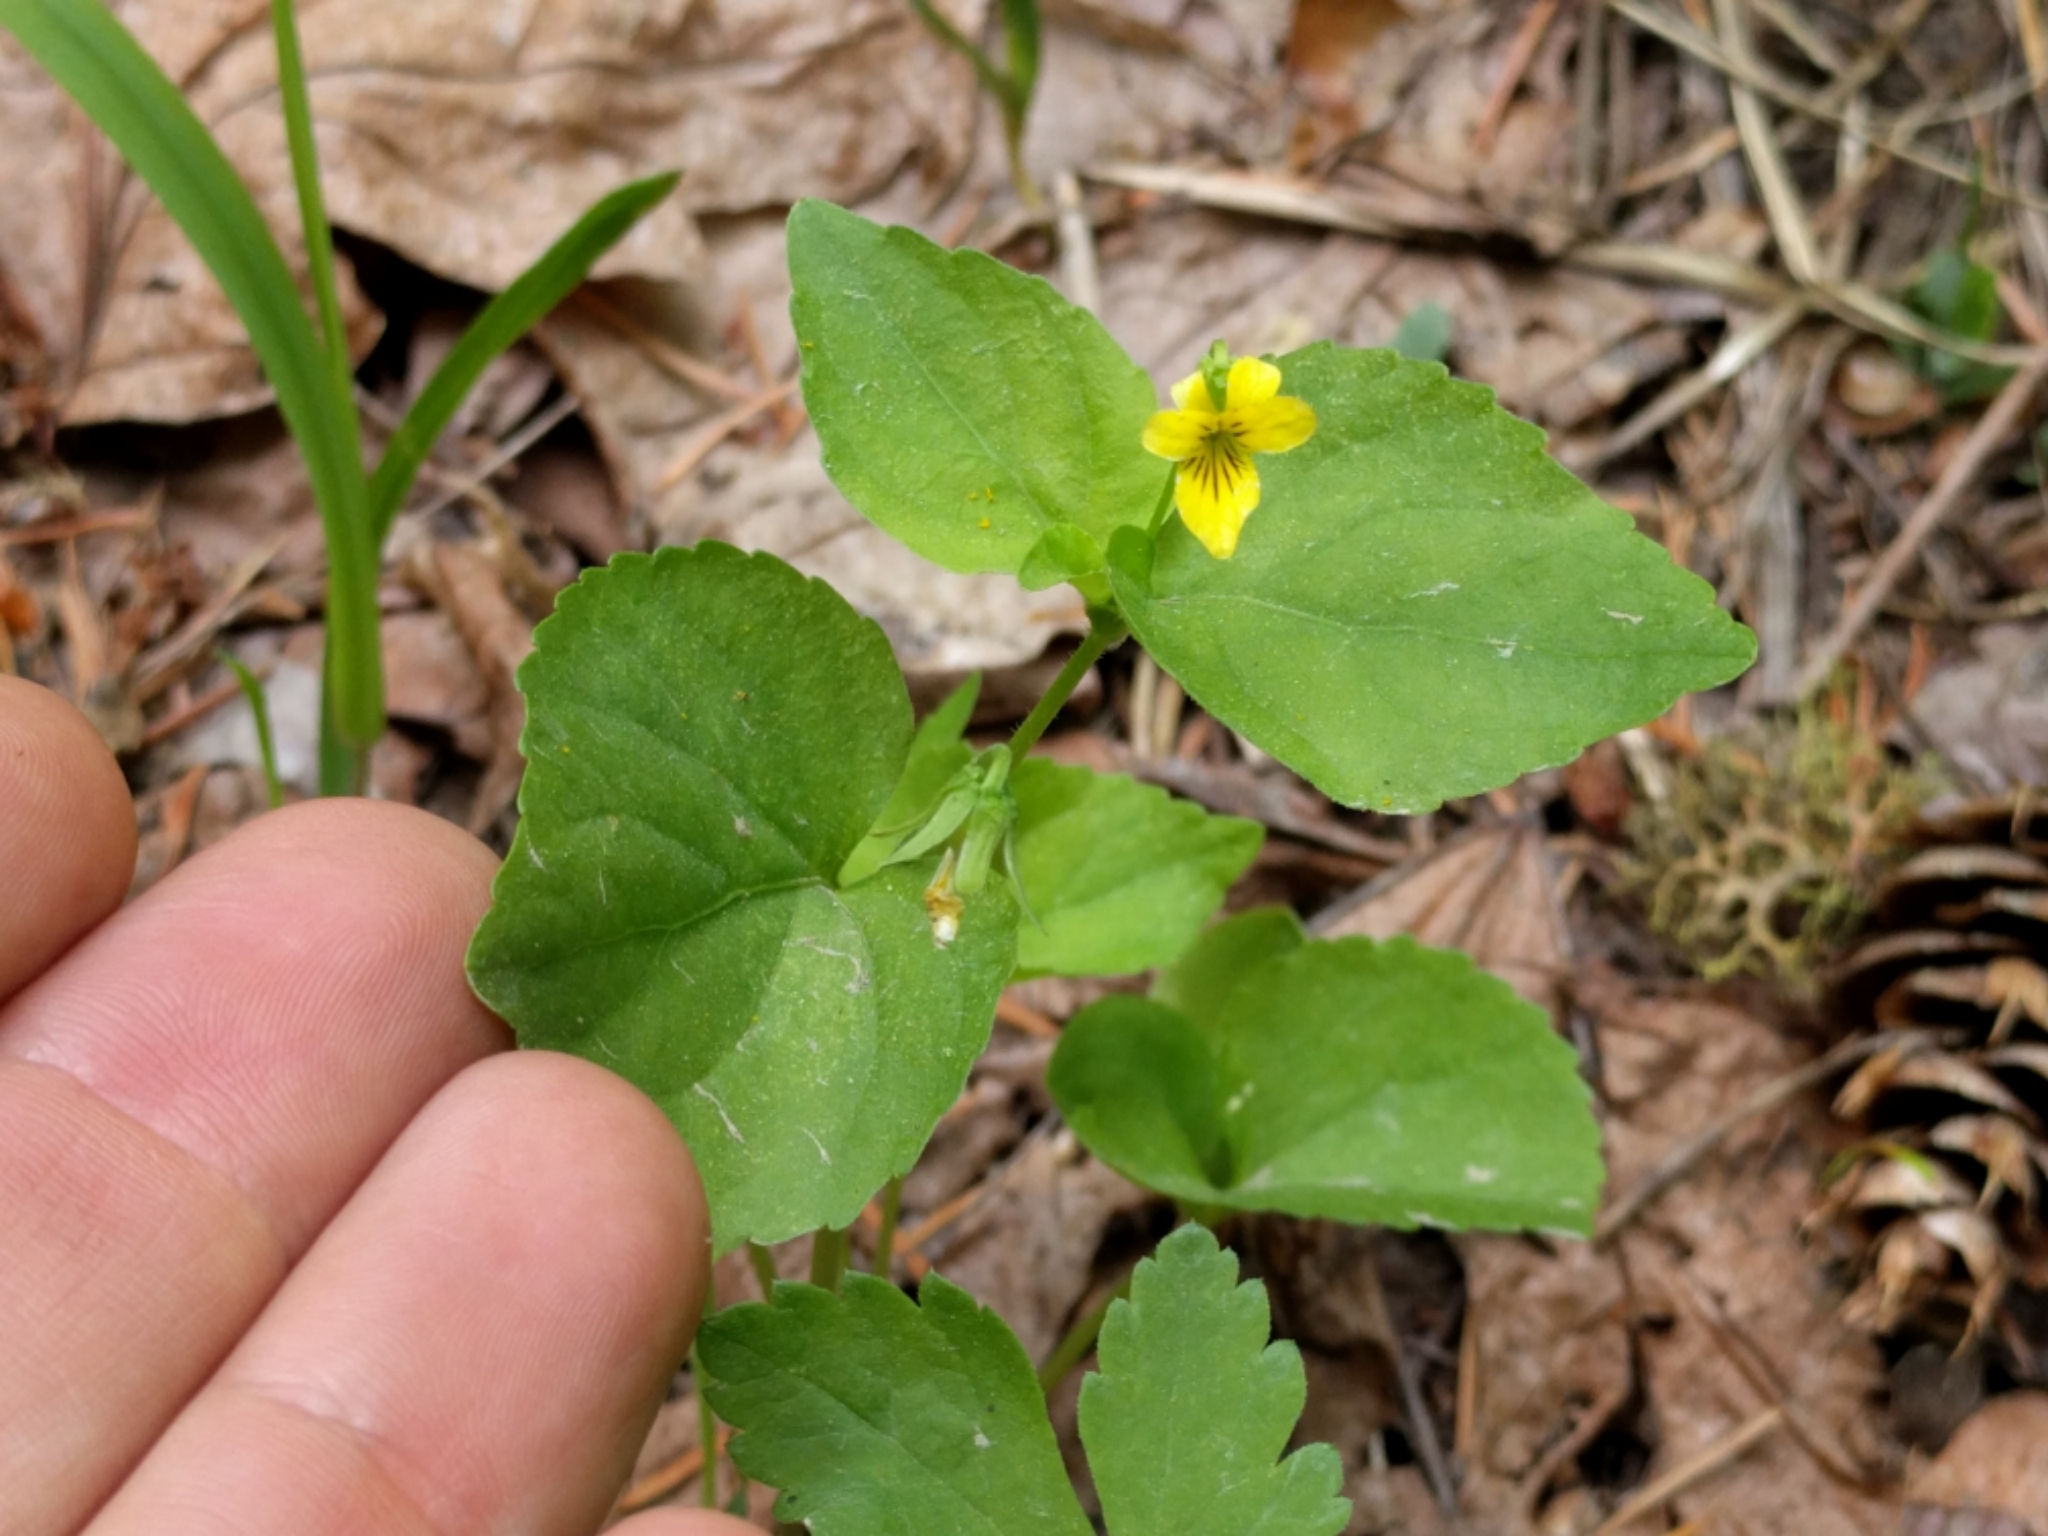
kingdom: Plantae
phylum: Tracheophyta
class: Magnoliopsida
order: Malpighiales
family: Violaceae
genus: Viola
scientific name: Viola glabella
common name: Stream violet
